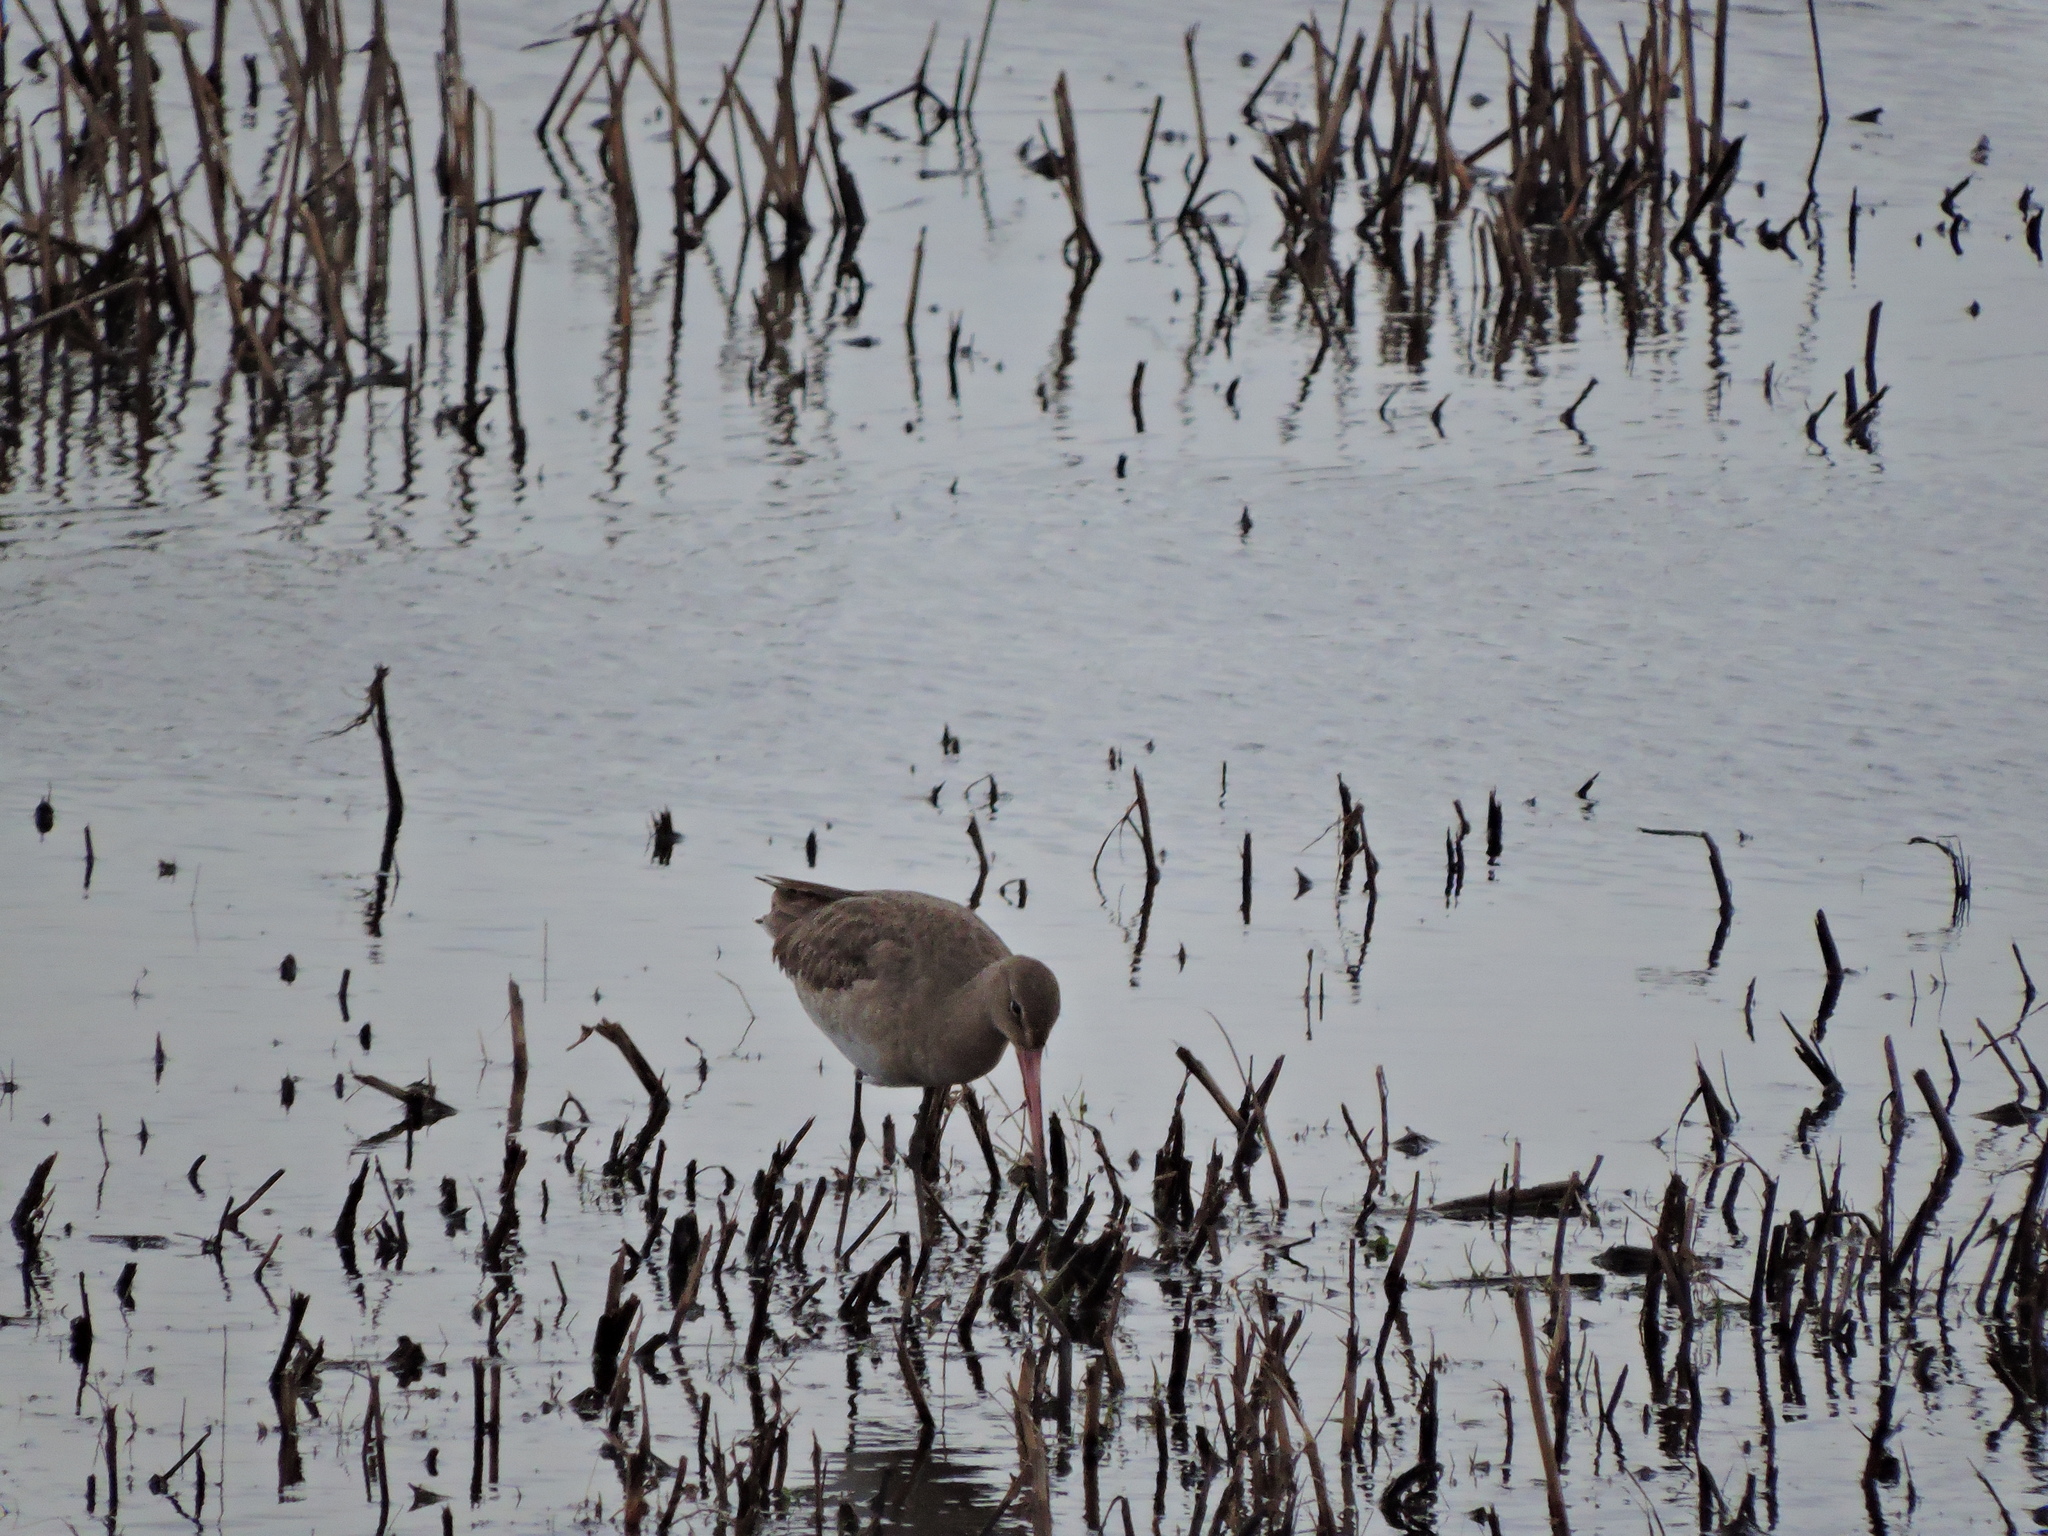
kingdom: Animalia
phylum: Chordata
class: Aves
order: Charadriiformes
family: Scolopacidae
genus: Limosa
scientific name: Limosa limosa
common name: Black-tailed godwit
